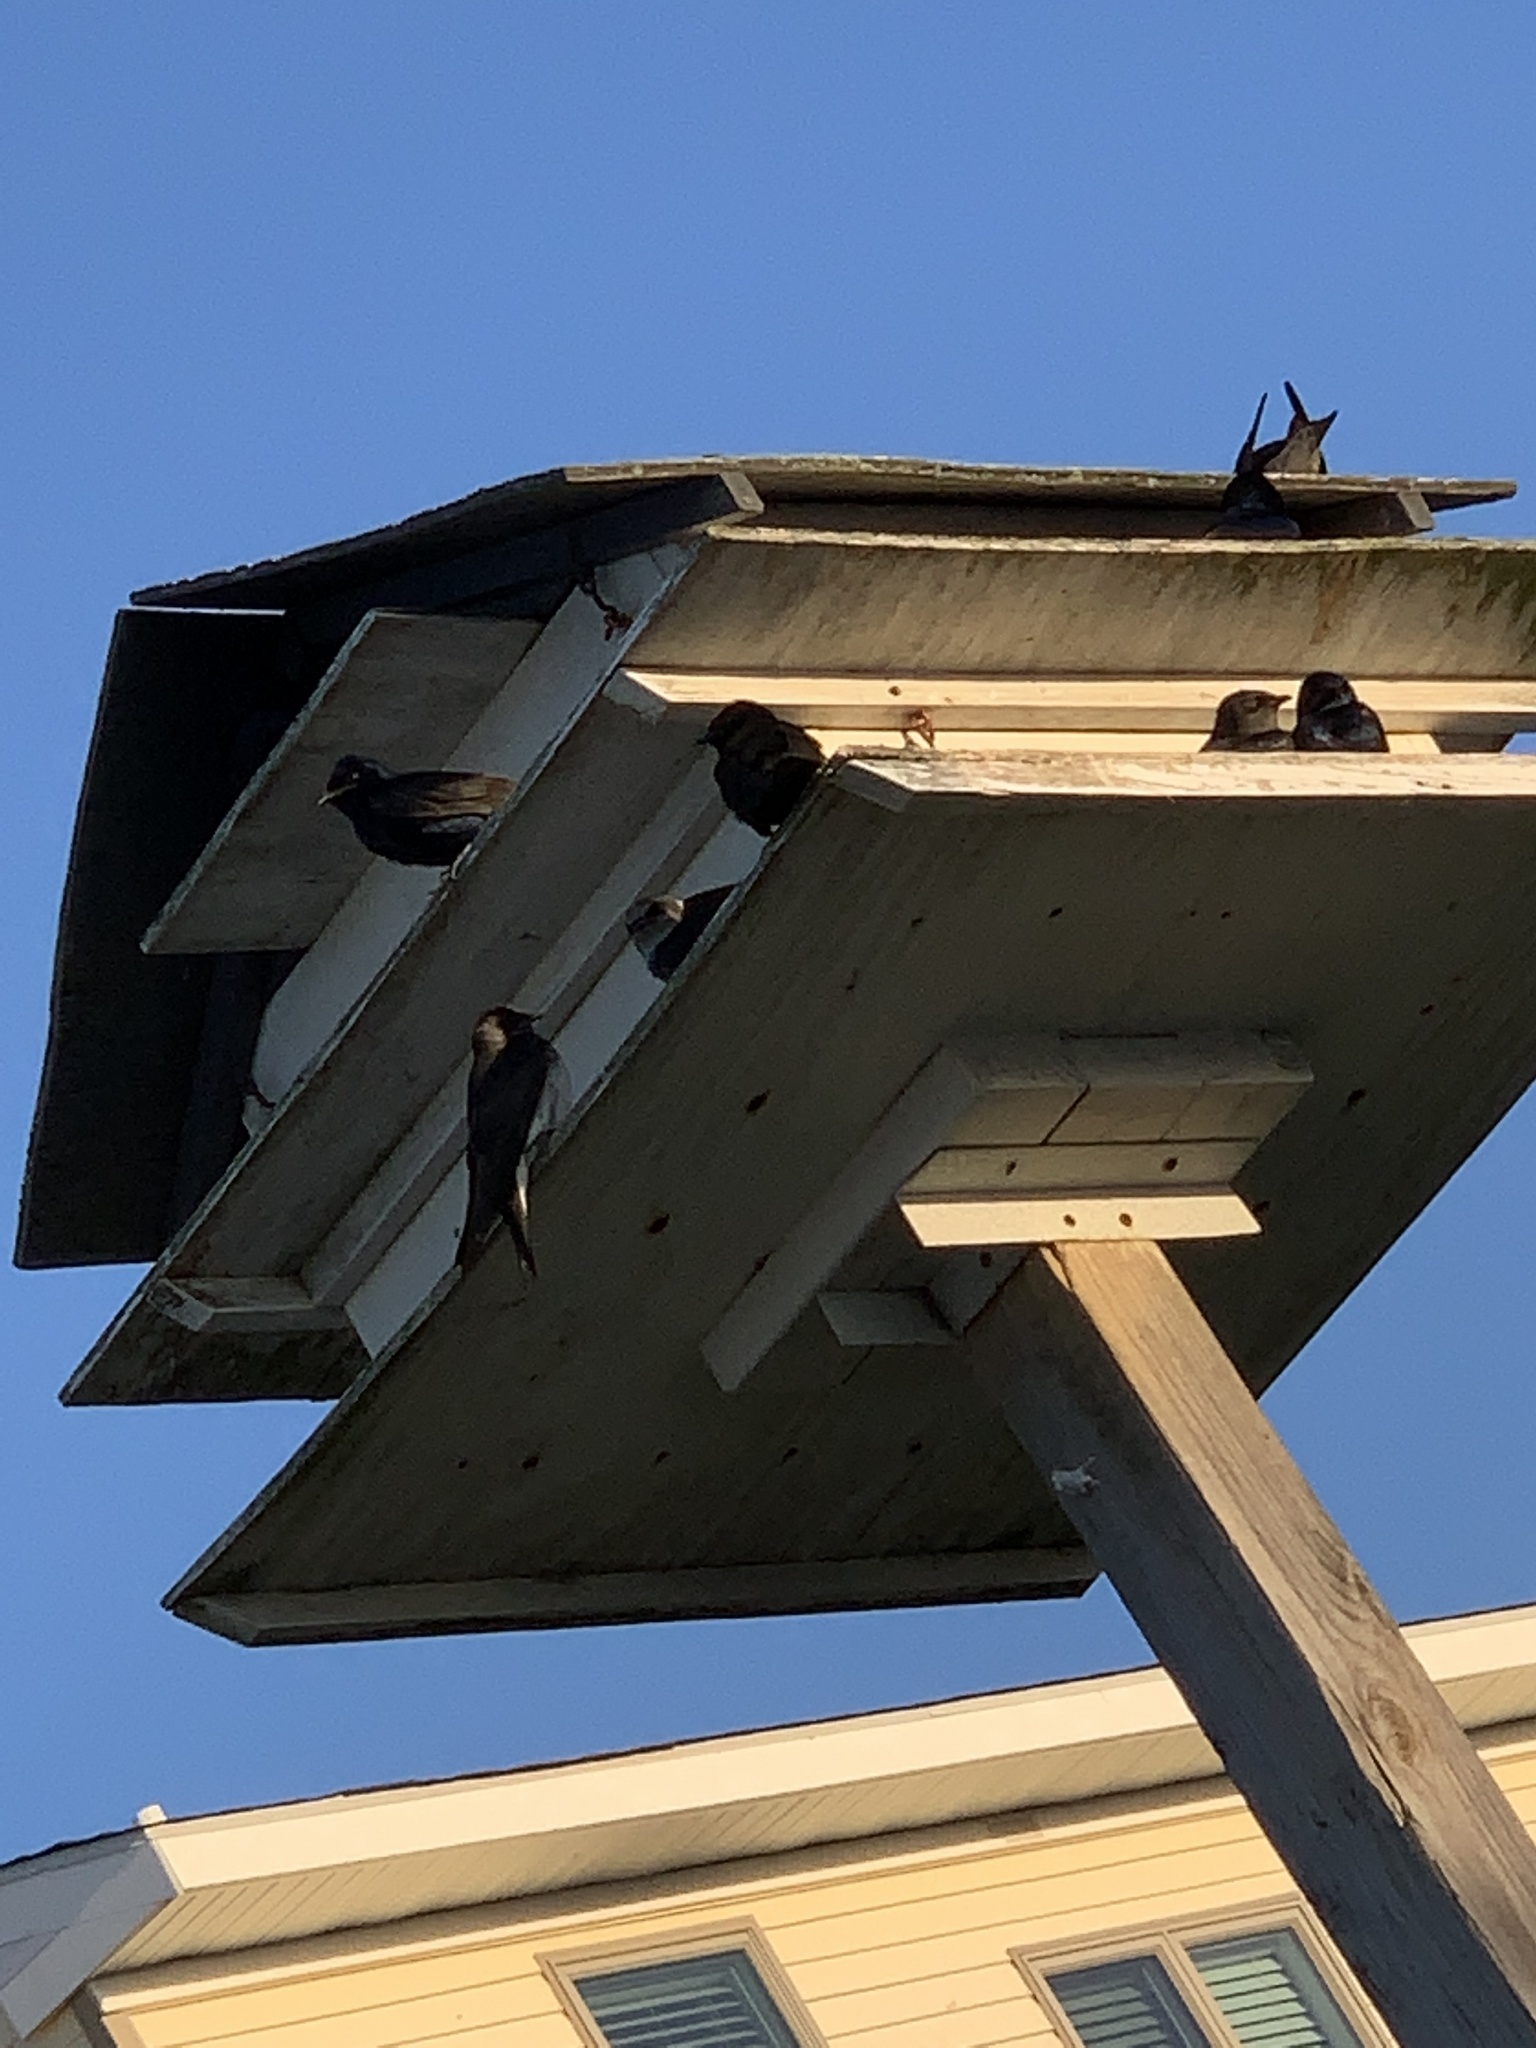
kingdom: Animalia
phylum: Chordata
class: Aves
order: Passeriformes
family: Hirundinidae
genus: Progne
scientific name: Progne subis
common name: Purple martin
